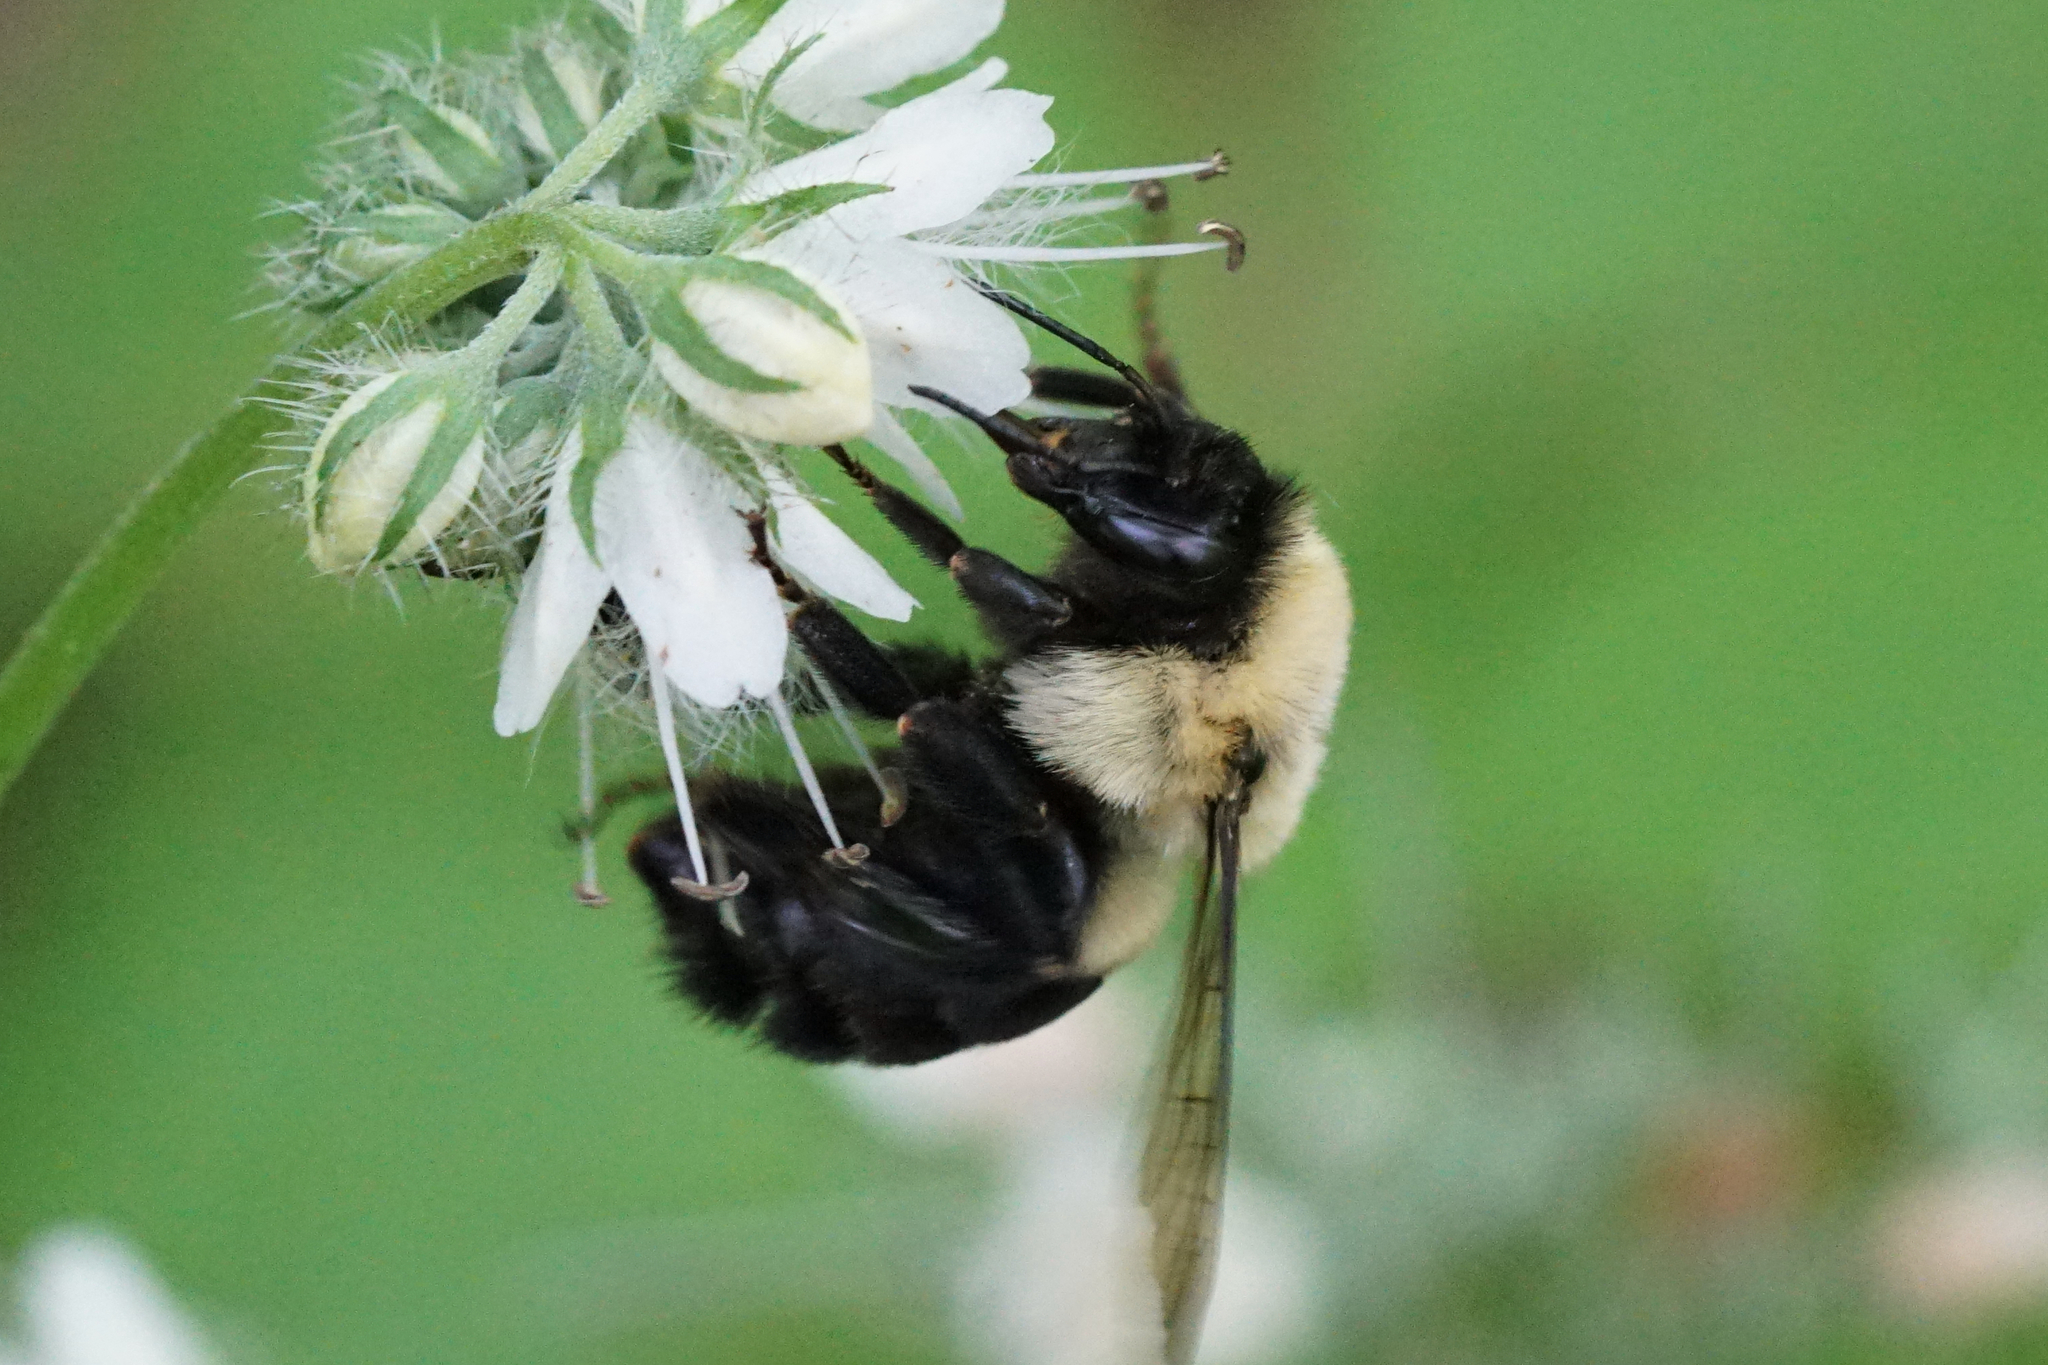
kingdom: Animalia
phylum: Arthropoda
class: Insecta
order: Hymenoptera
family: Apidae
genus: Bombus
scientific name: Bombus impatiens
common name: Common eastern bumble bee
